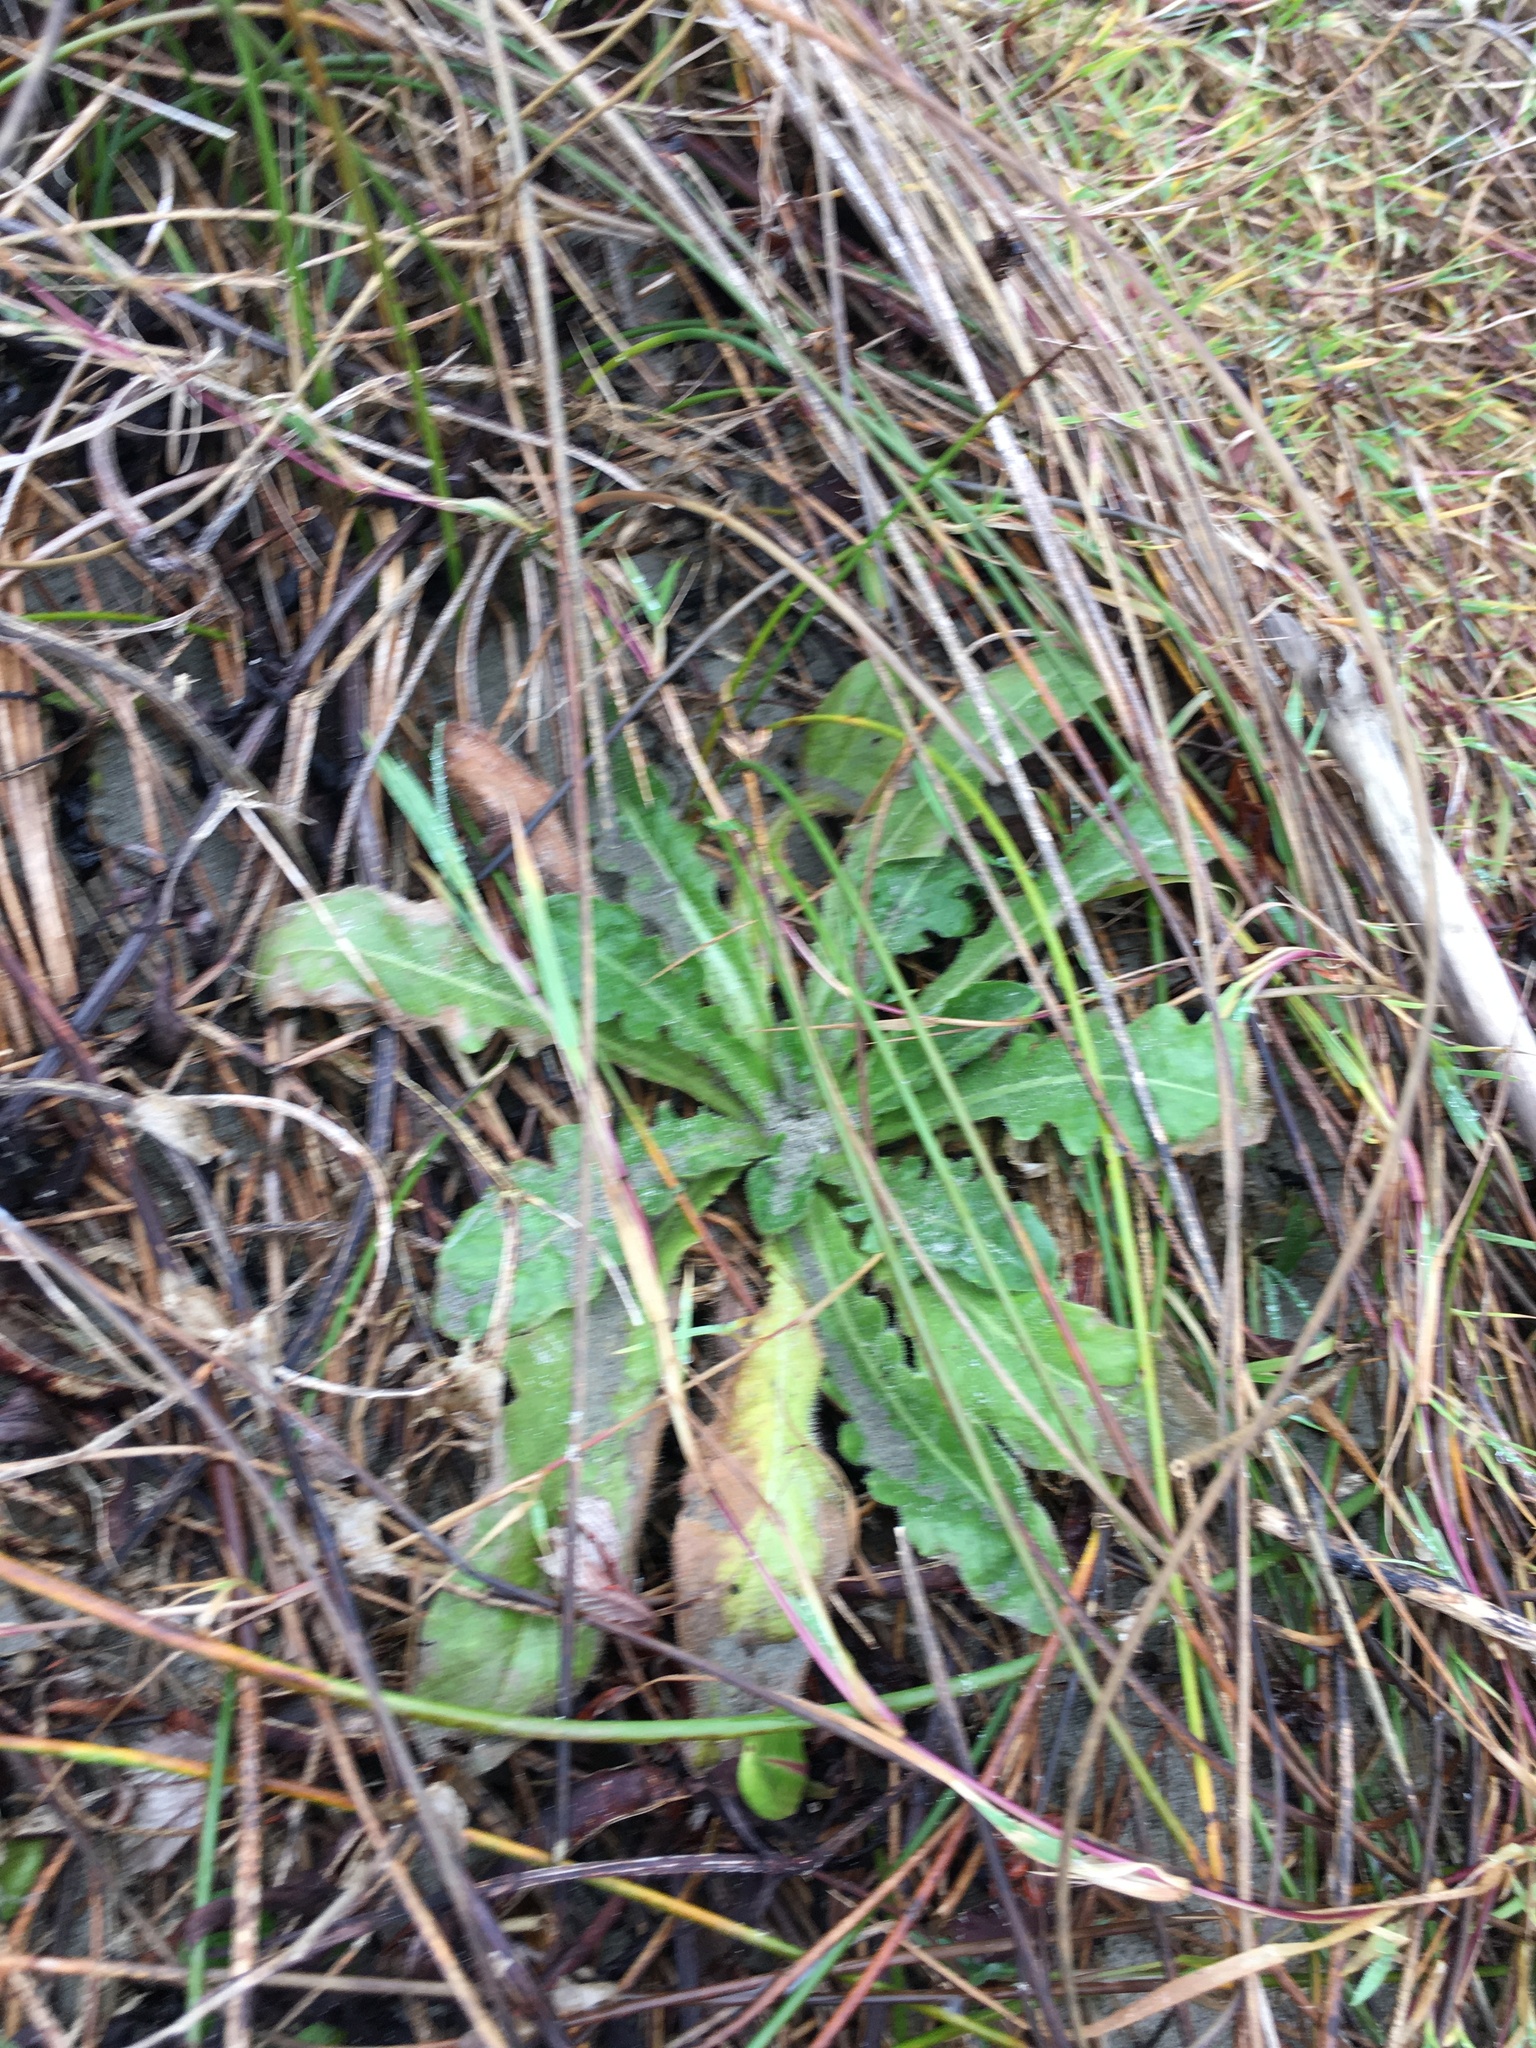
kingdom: Plantae
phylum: Tracheophyta
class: Magnoliopsida
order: Asterales
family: Asteraceae
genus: Hypochaeris
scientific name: Hypochaeris radicata
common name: Flatweed
